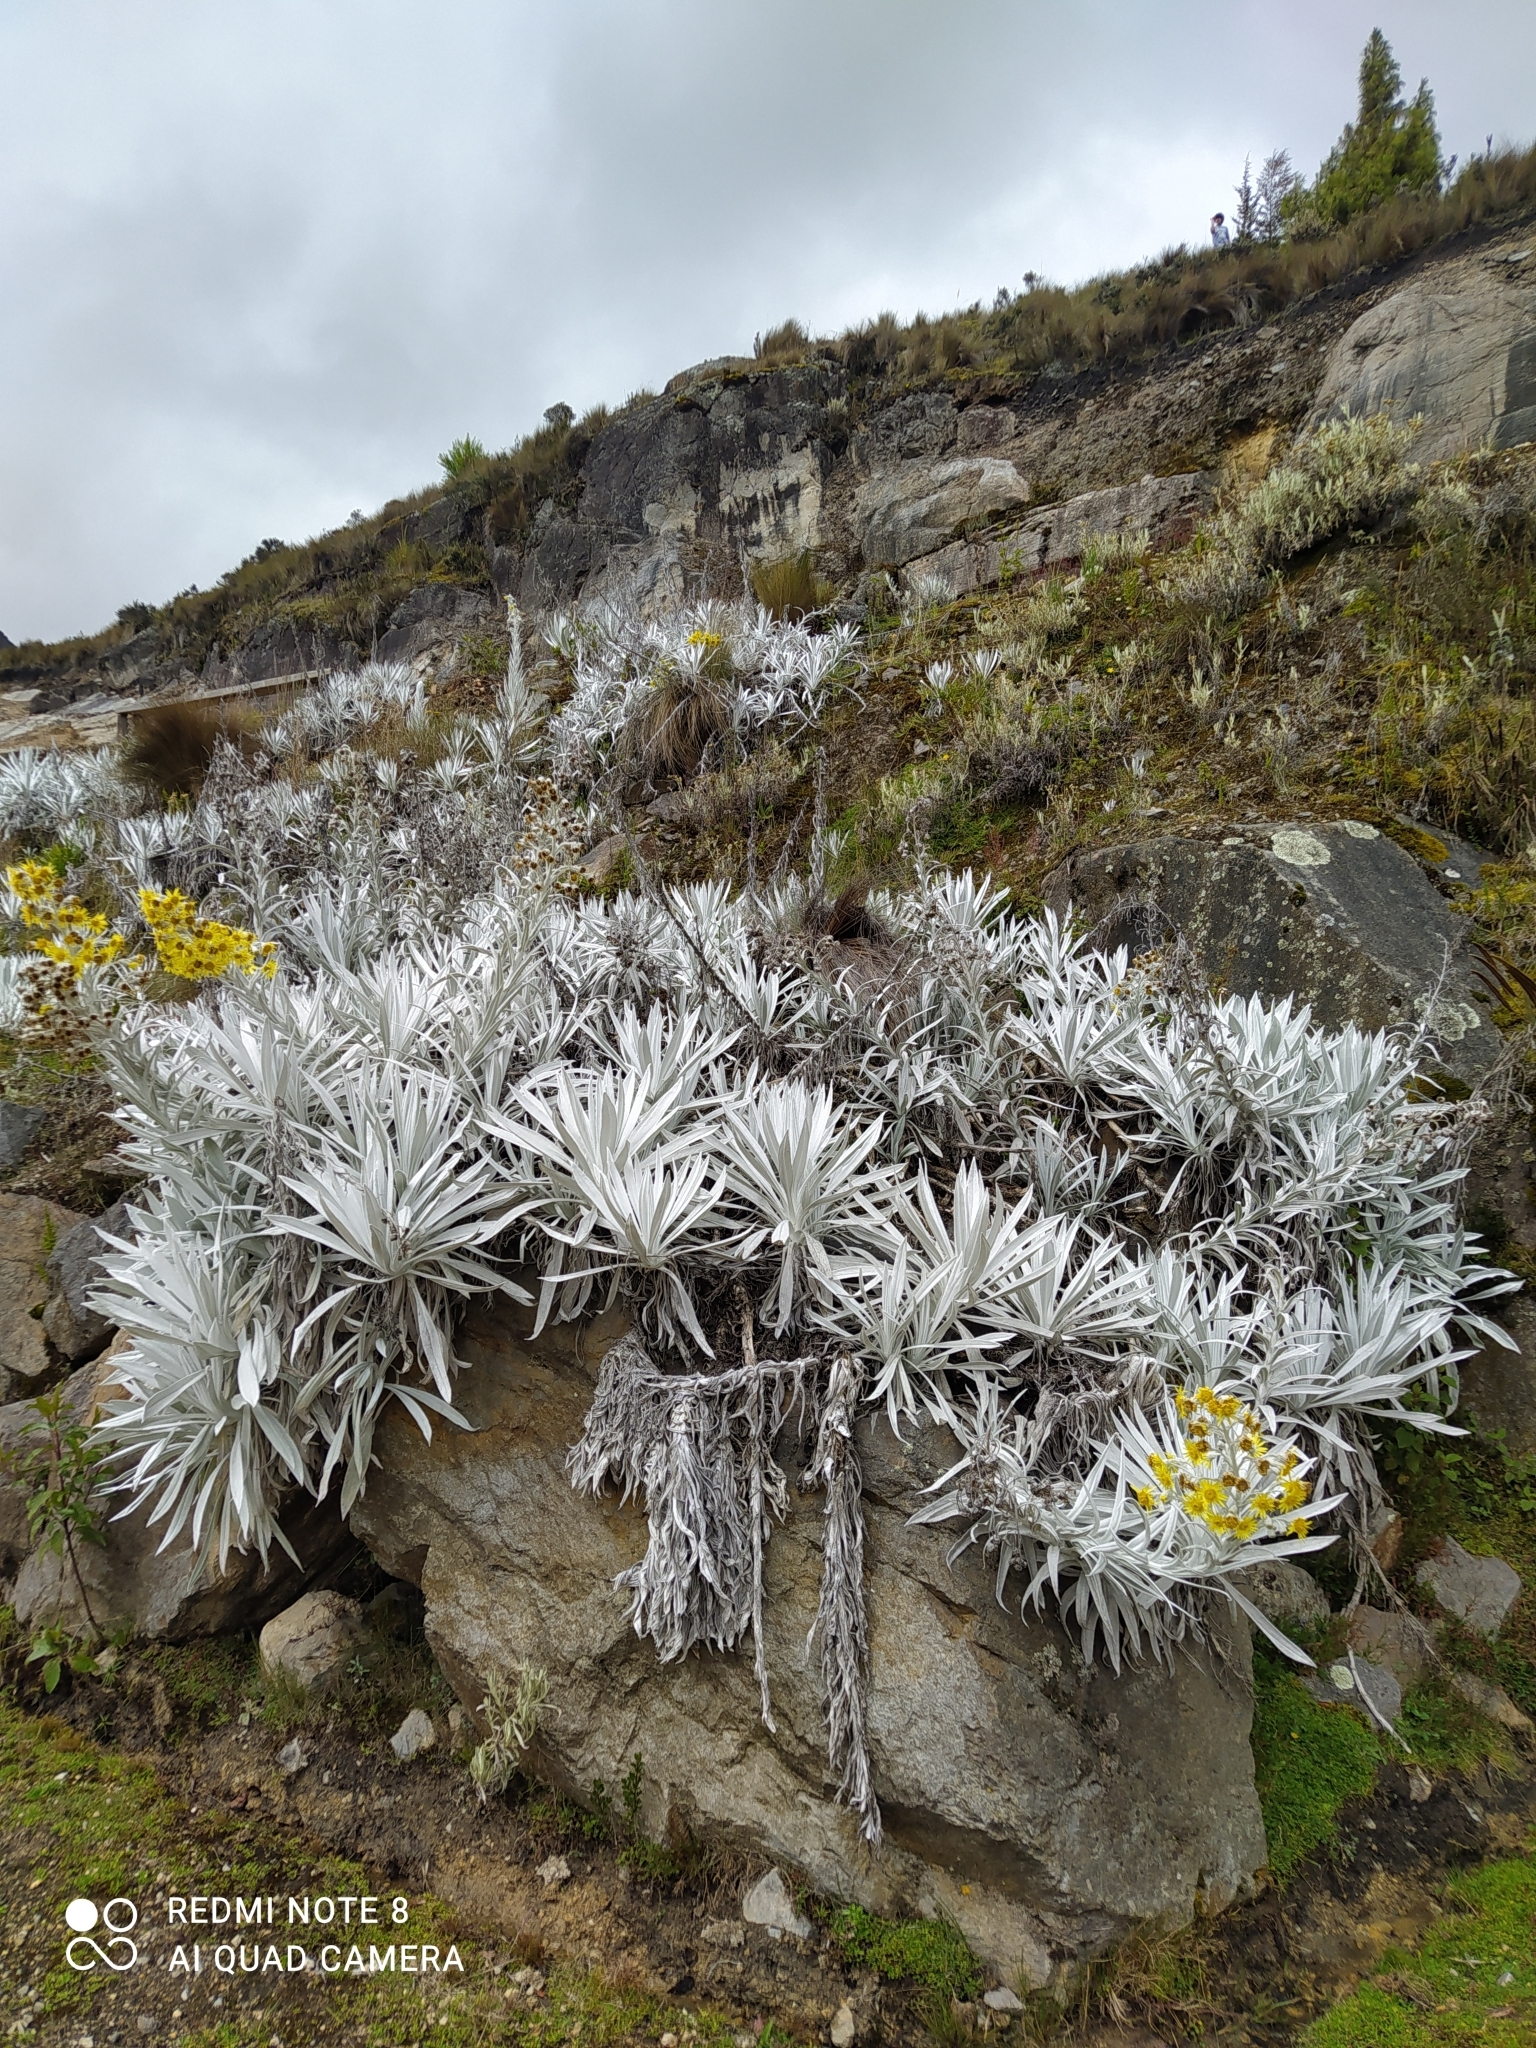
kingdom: Plantae
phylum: Tracheophyta
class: Magnoliopsida
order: Asterales
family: Asteraceae
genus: Senecio
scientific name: Senecio niveoaureus
